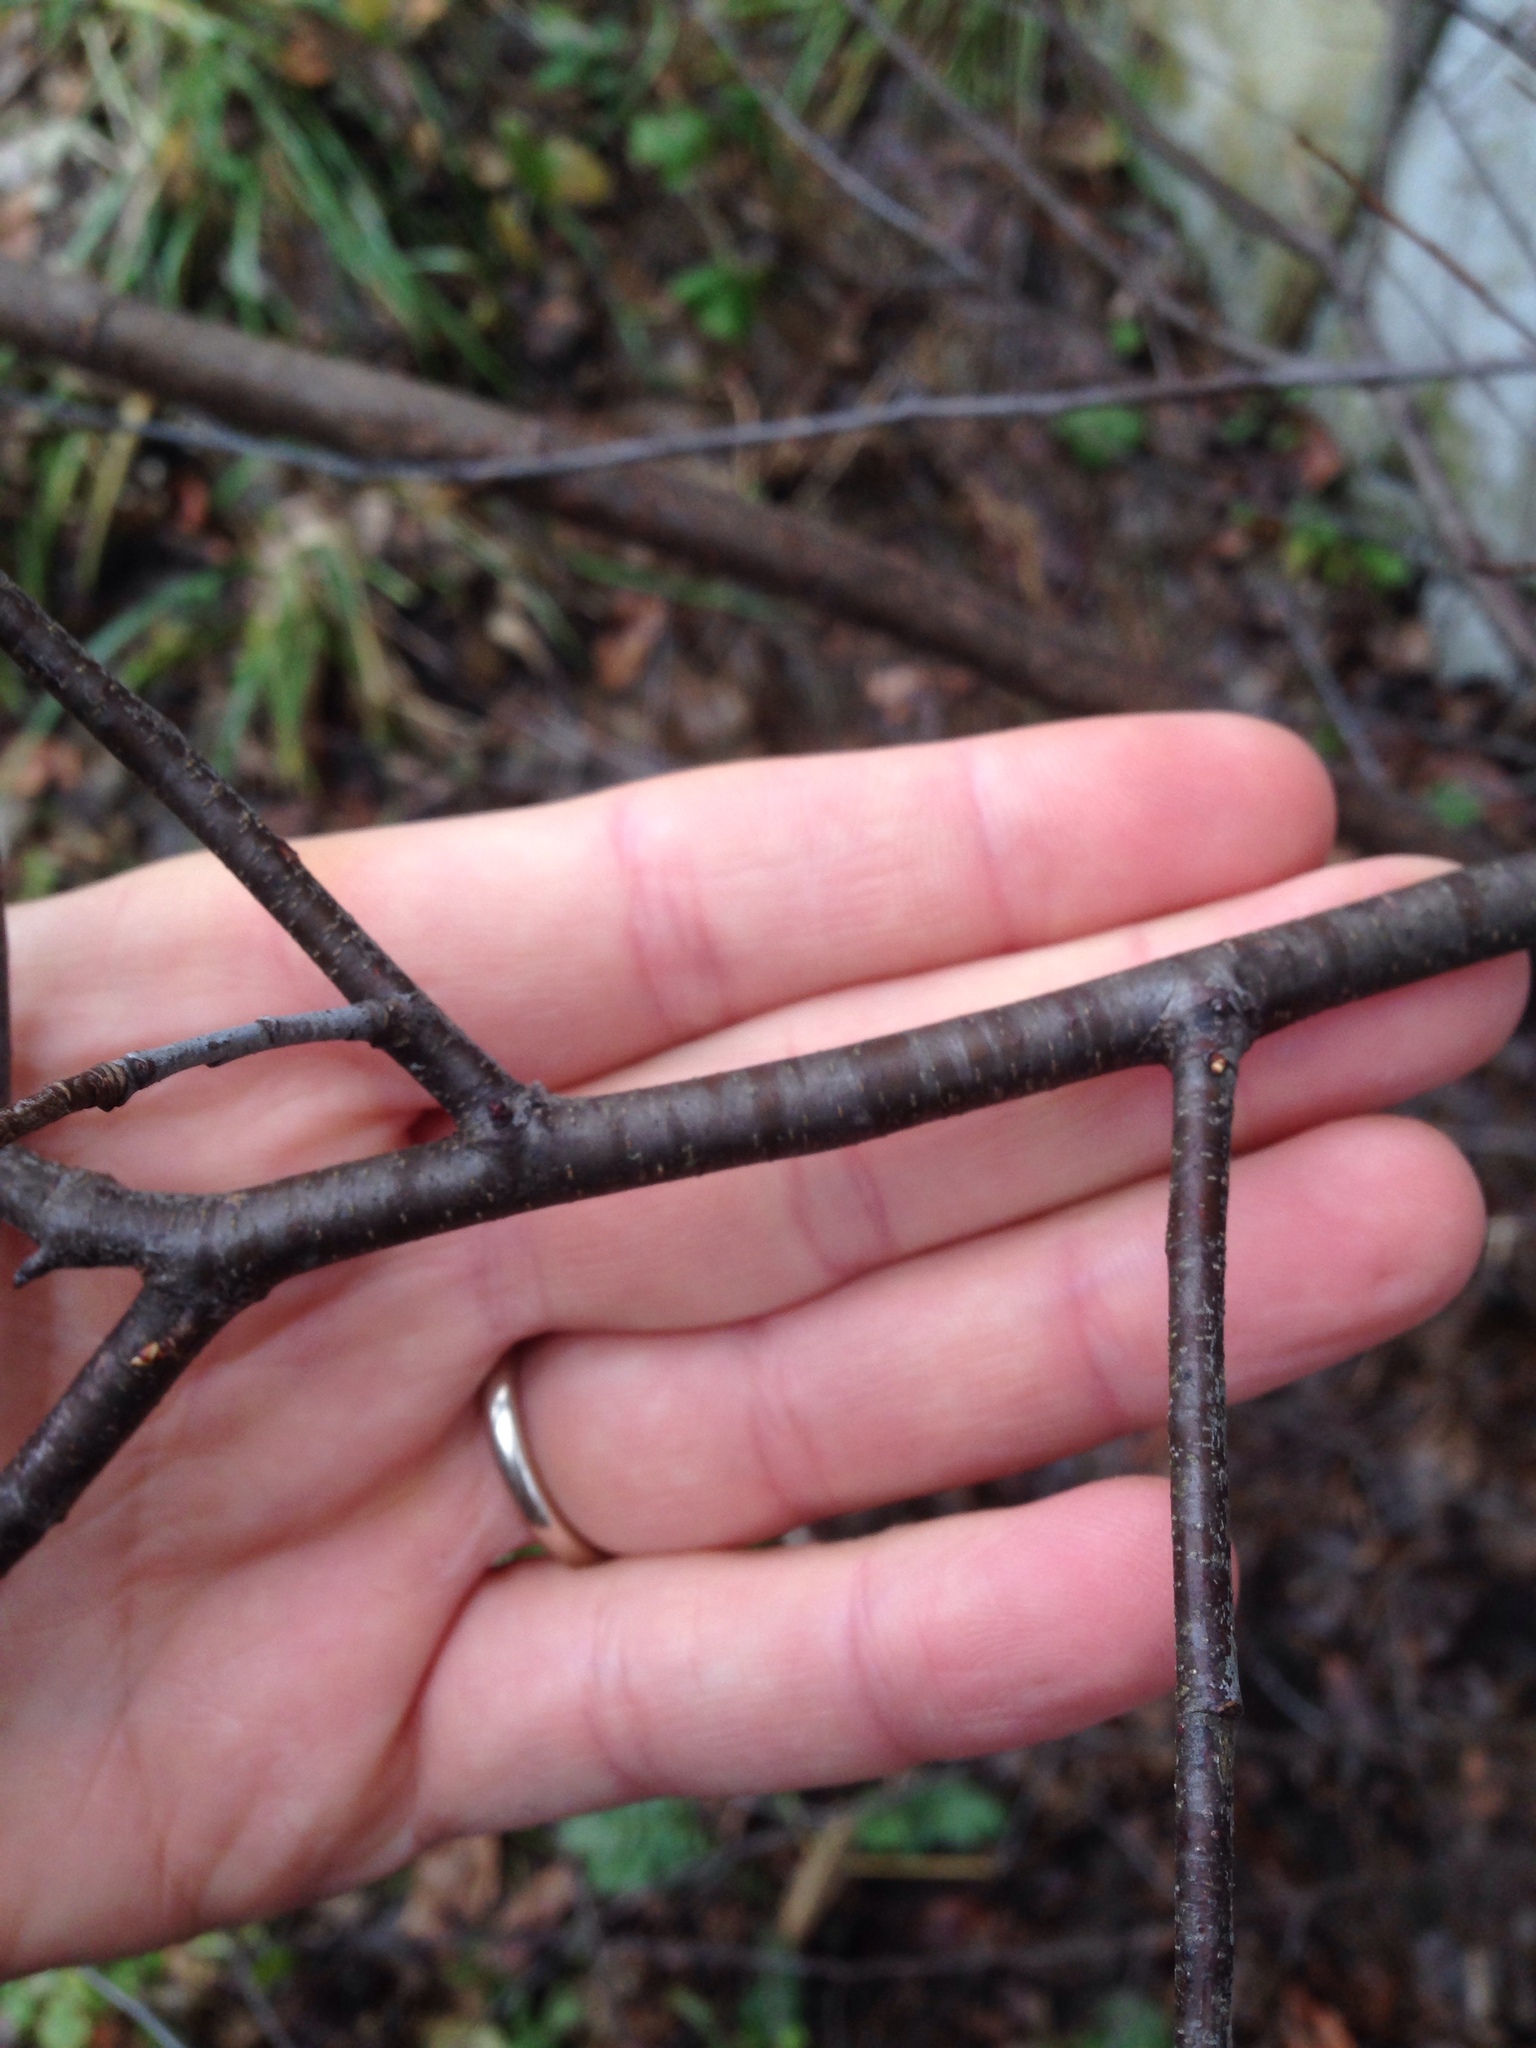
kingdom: Plantae
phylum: Tracheophyta
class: Magnoliopsida
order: Rosales
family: Rosaceae
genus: Prunus
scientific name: Prunus serotina
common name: Black cherry
